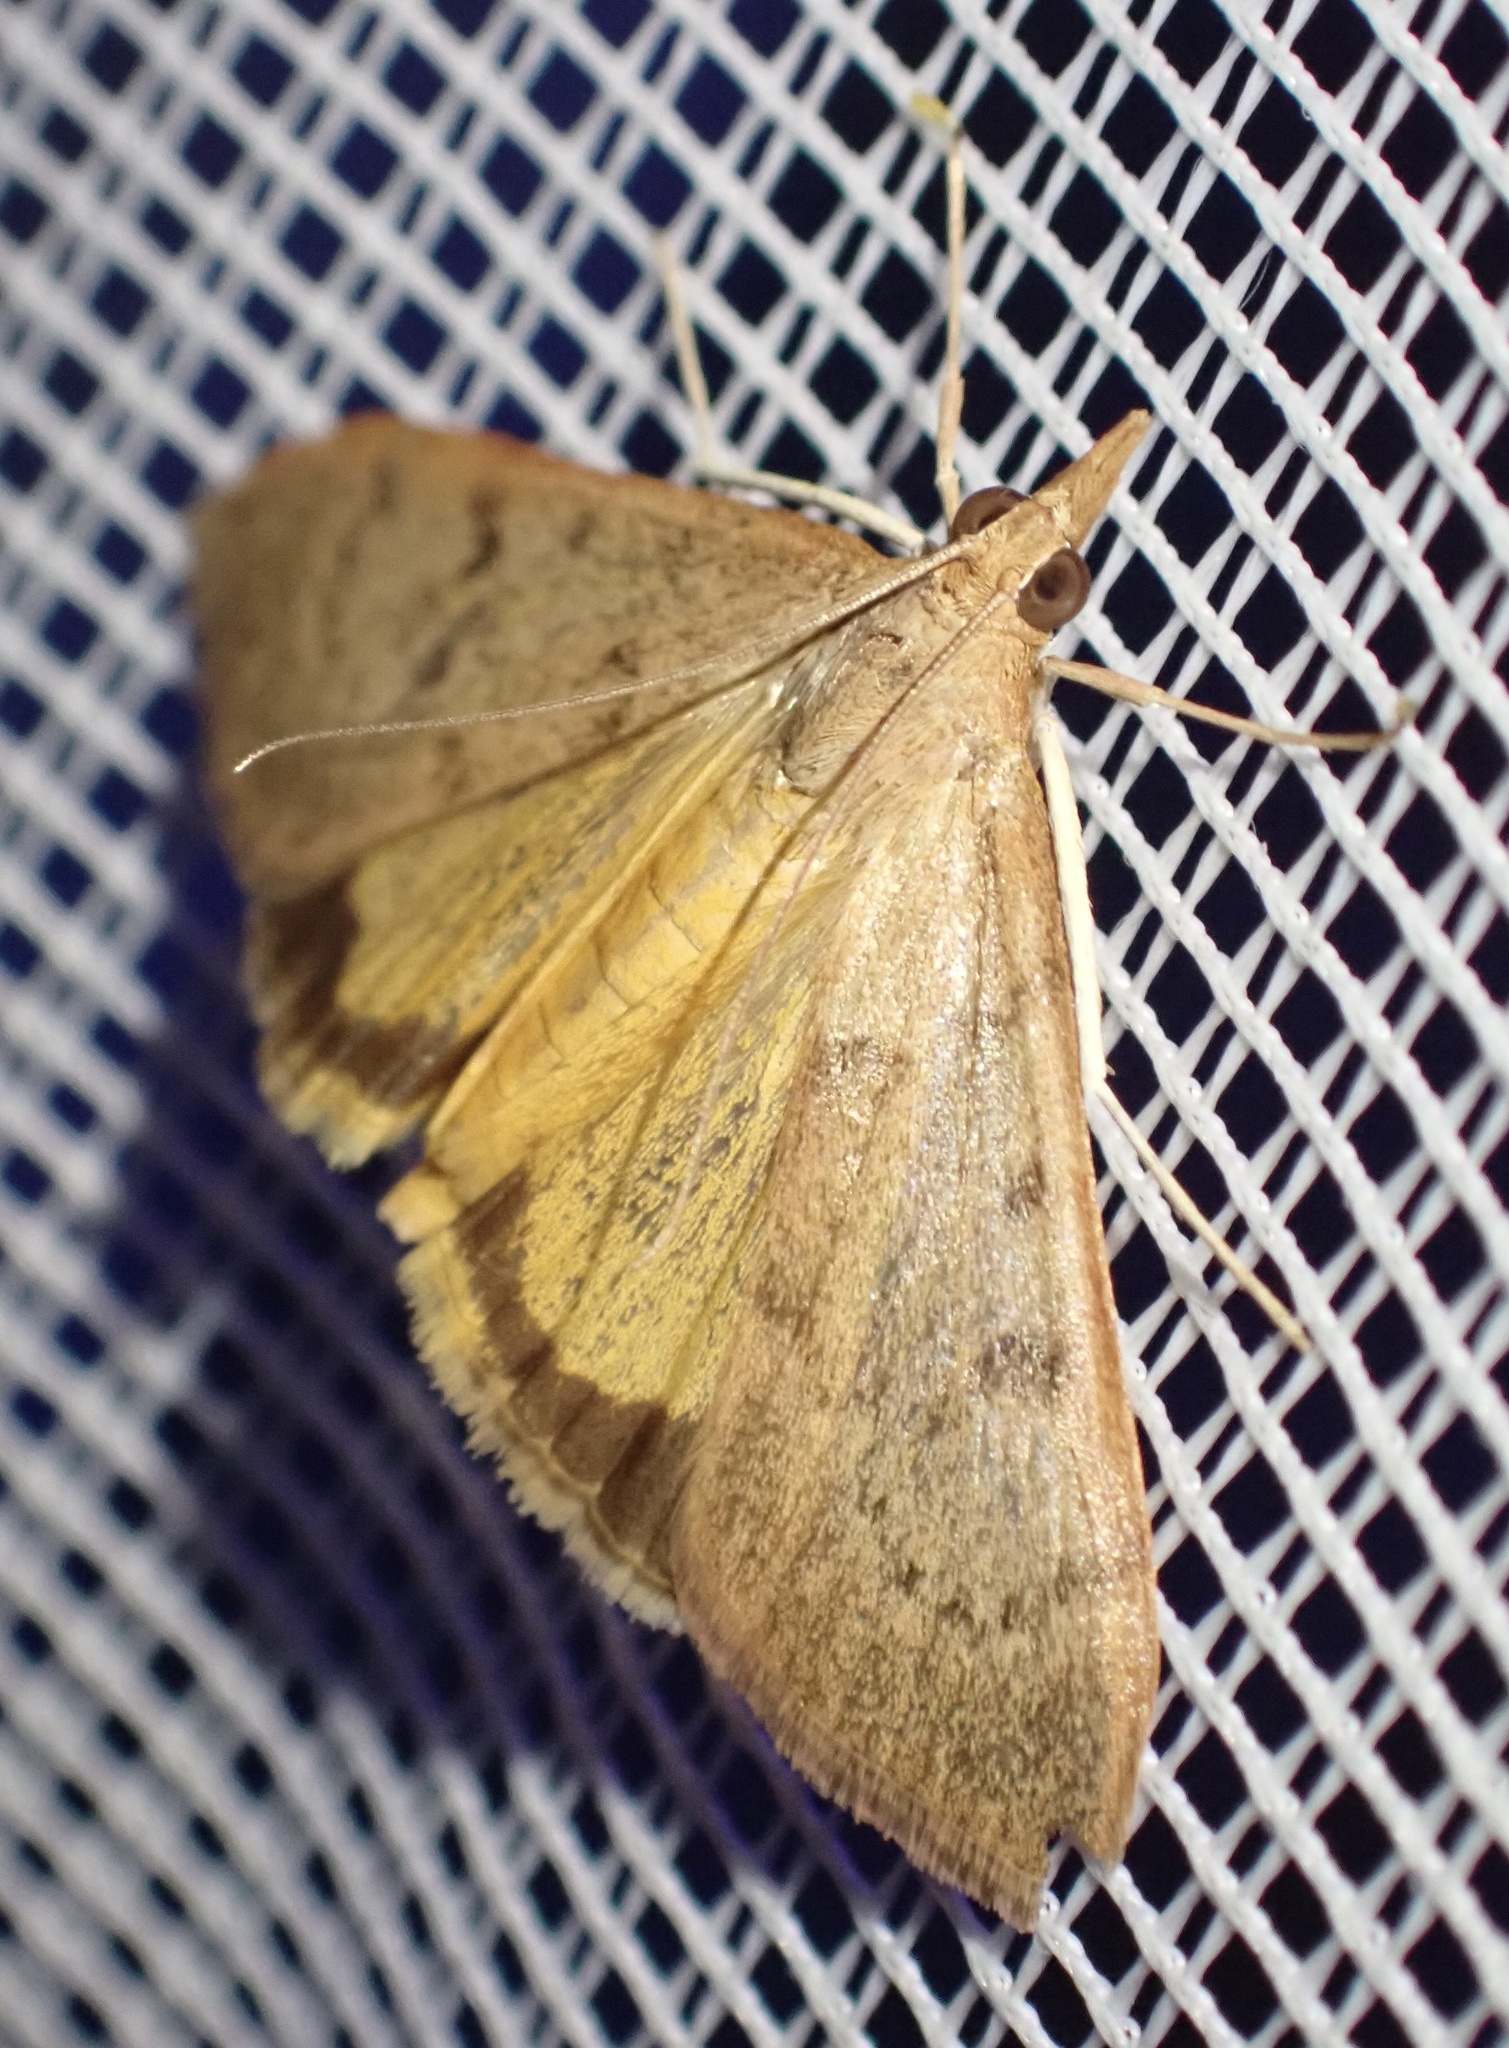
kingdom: Animalia
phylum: Arthropoda
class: Insecta
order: Lepidoptera
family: Crambidae
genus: Uresiphita
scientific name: Uresiphita gilvata
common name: Yellow-underwing pearl
